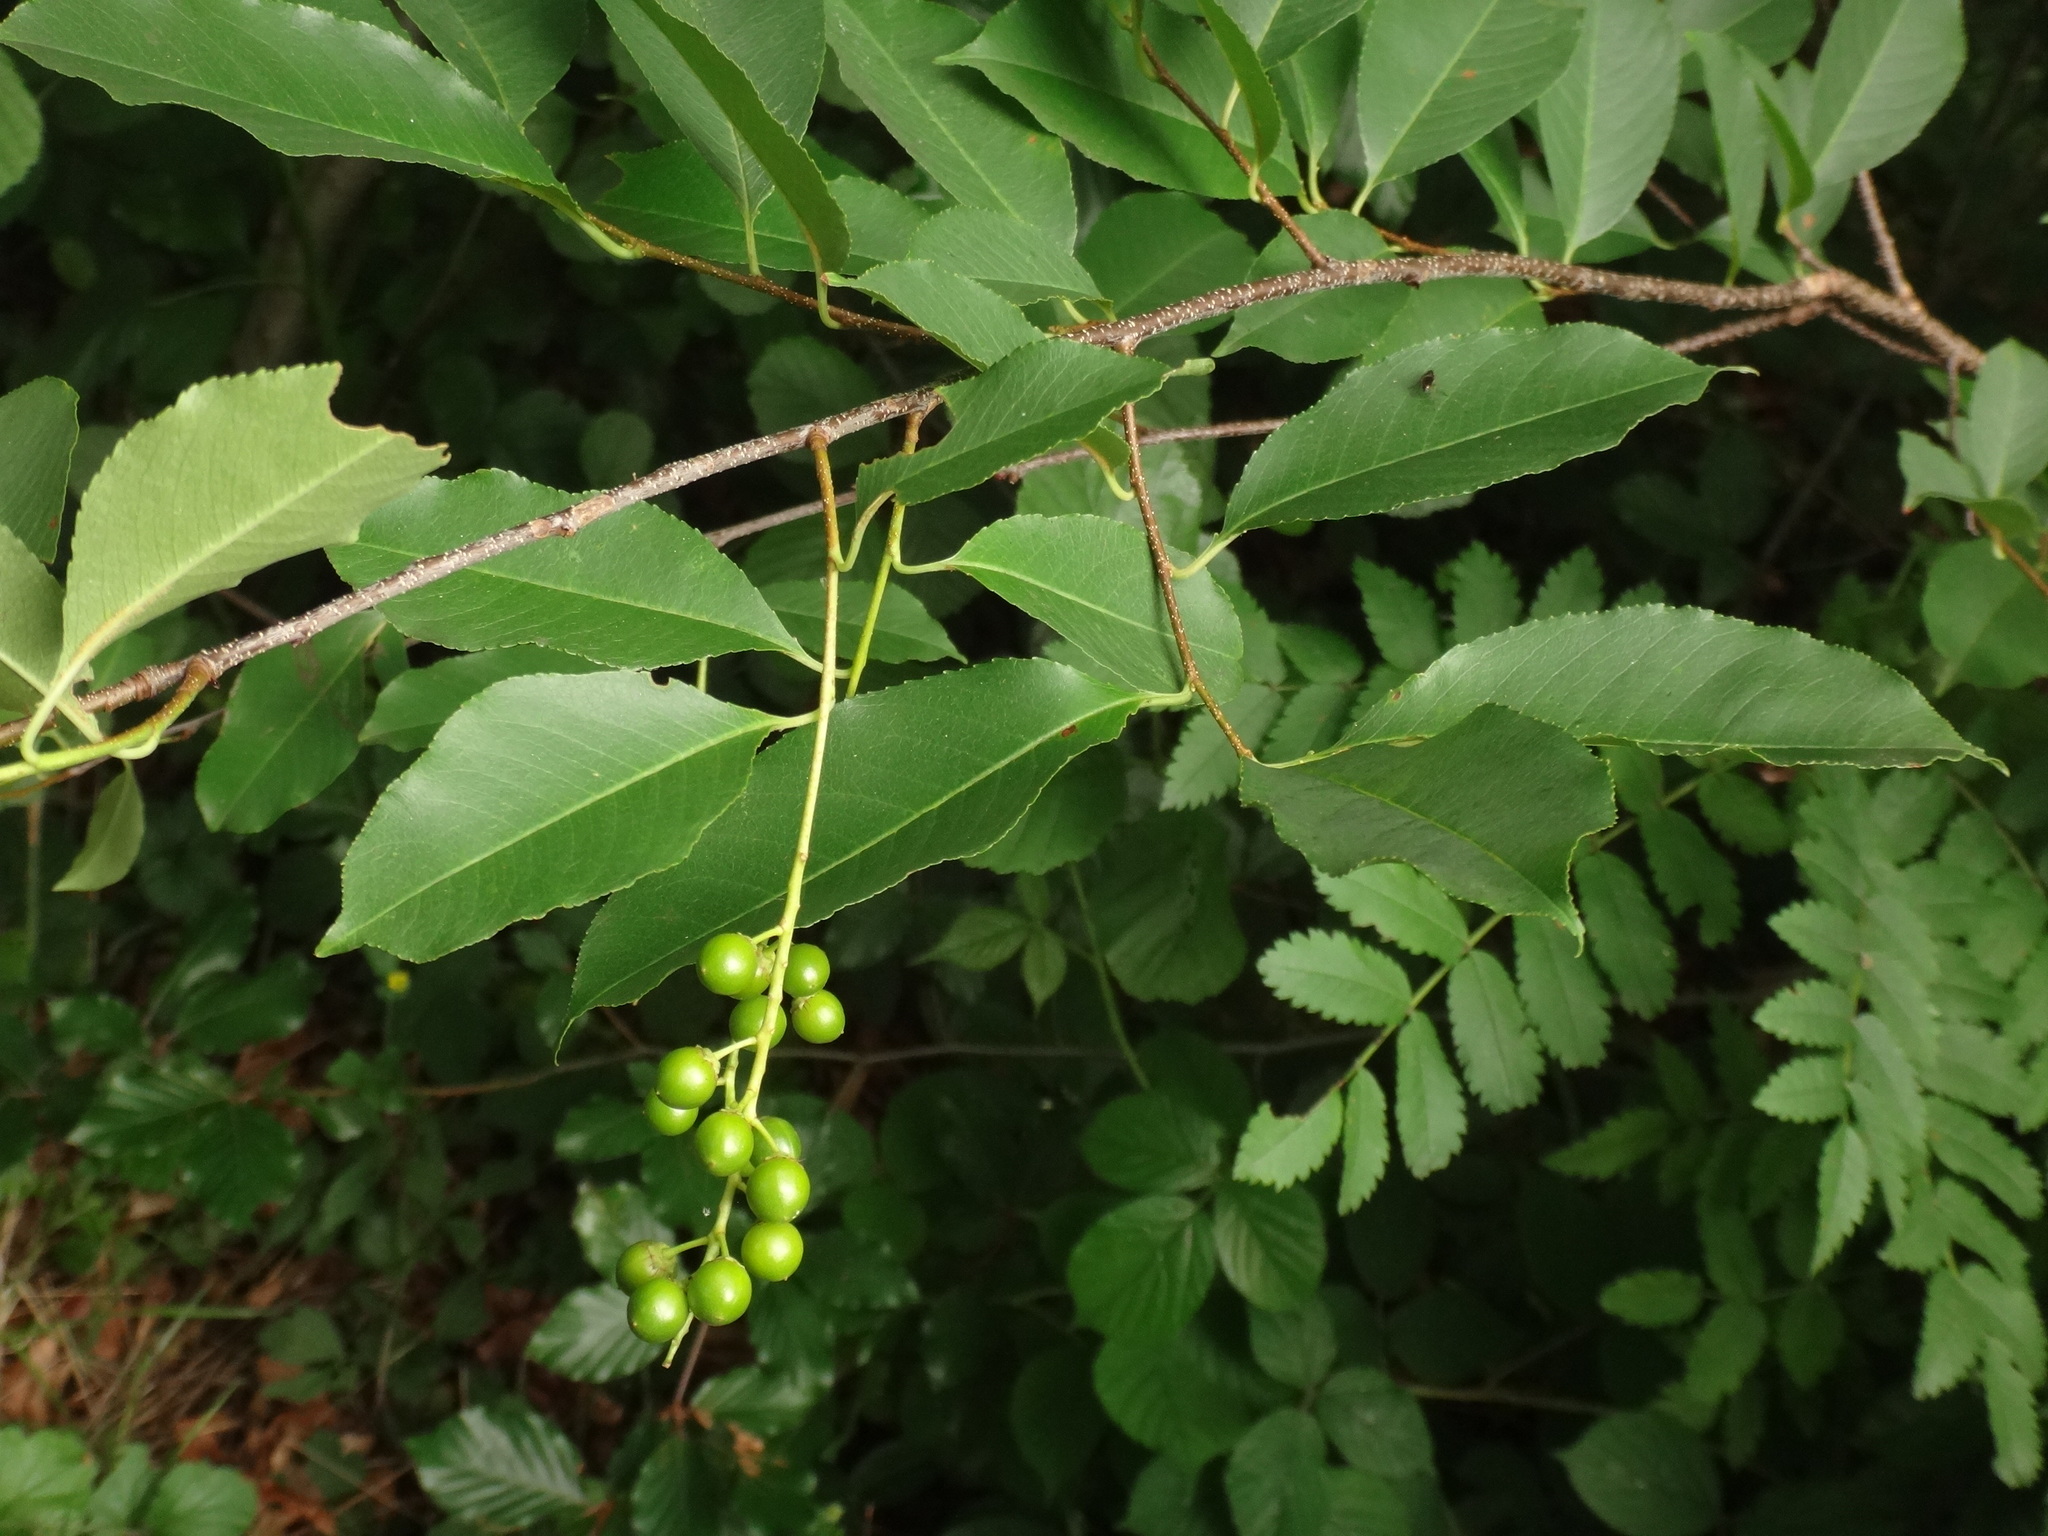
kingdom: Plantae
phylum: Tracheophyta
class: Magnoliopsida
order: Rosales
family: Rosaceae
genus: Prunus
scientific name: Prunus serotina
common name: Black cherry
